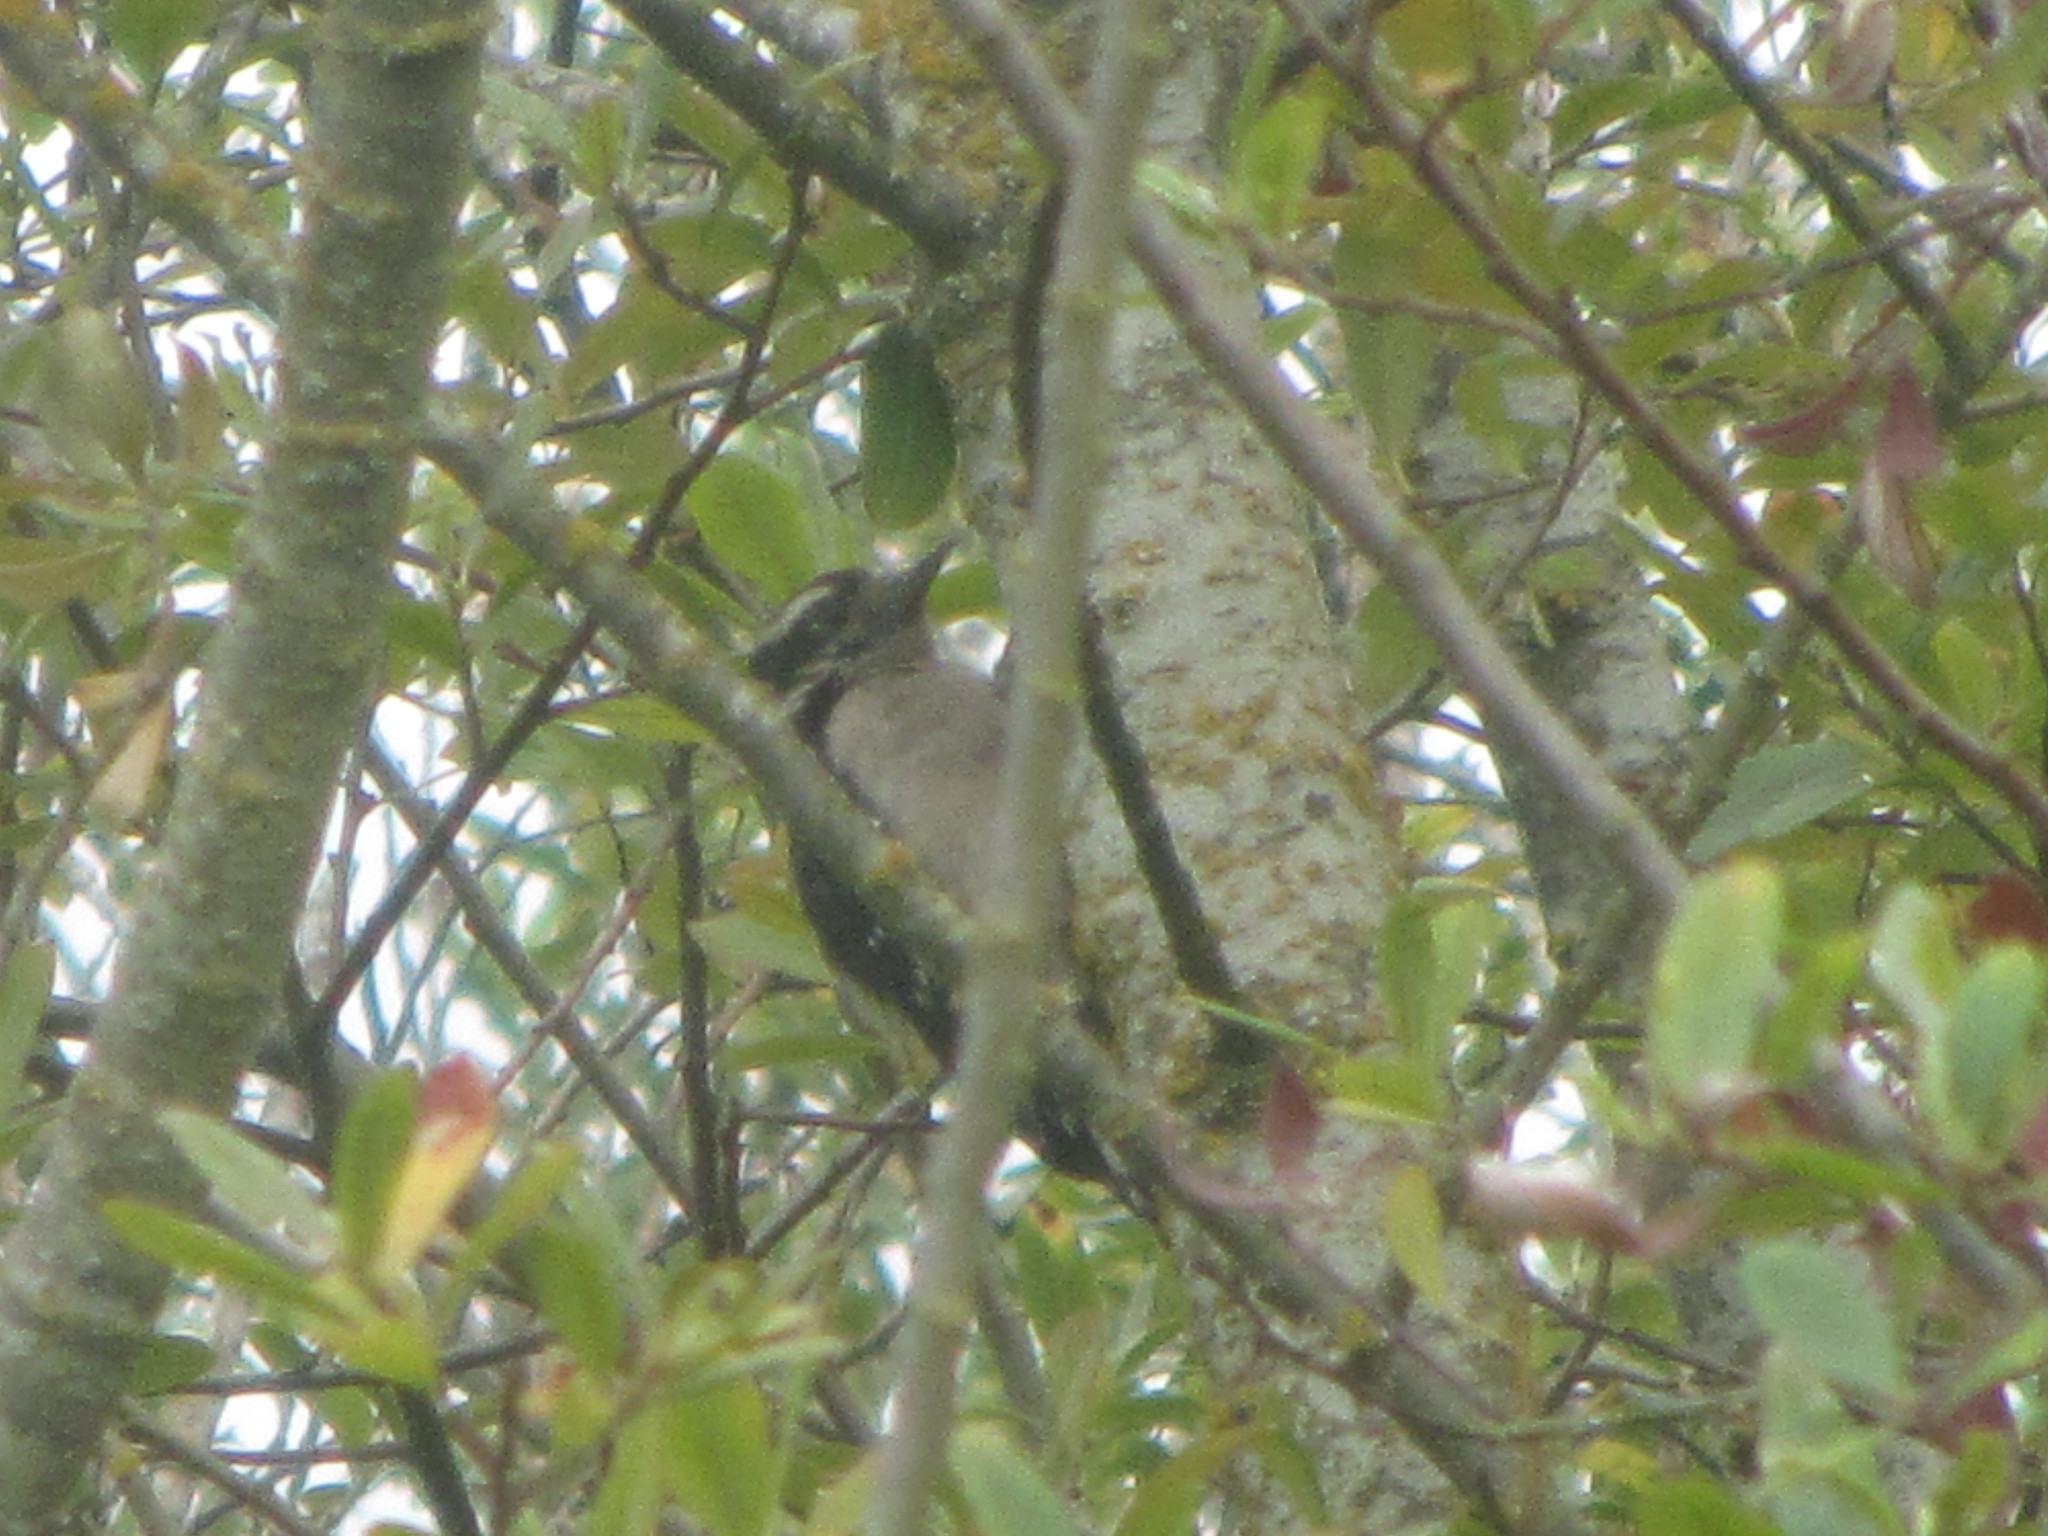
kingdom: Animalia
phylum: Chordata
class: Aves
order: Piciformes
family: Picidae
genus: Dryobates
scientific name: Dryobates pubescens
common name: Downy woodpecker
